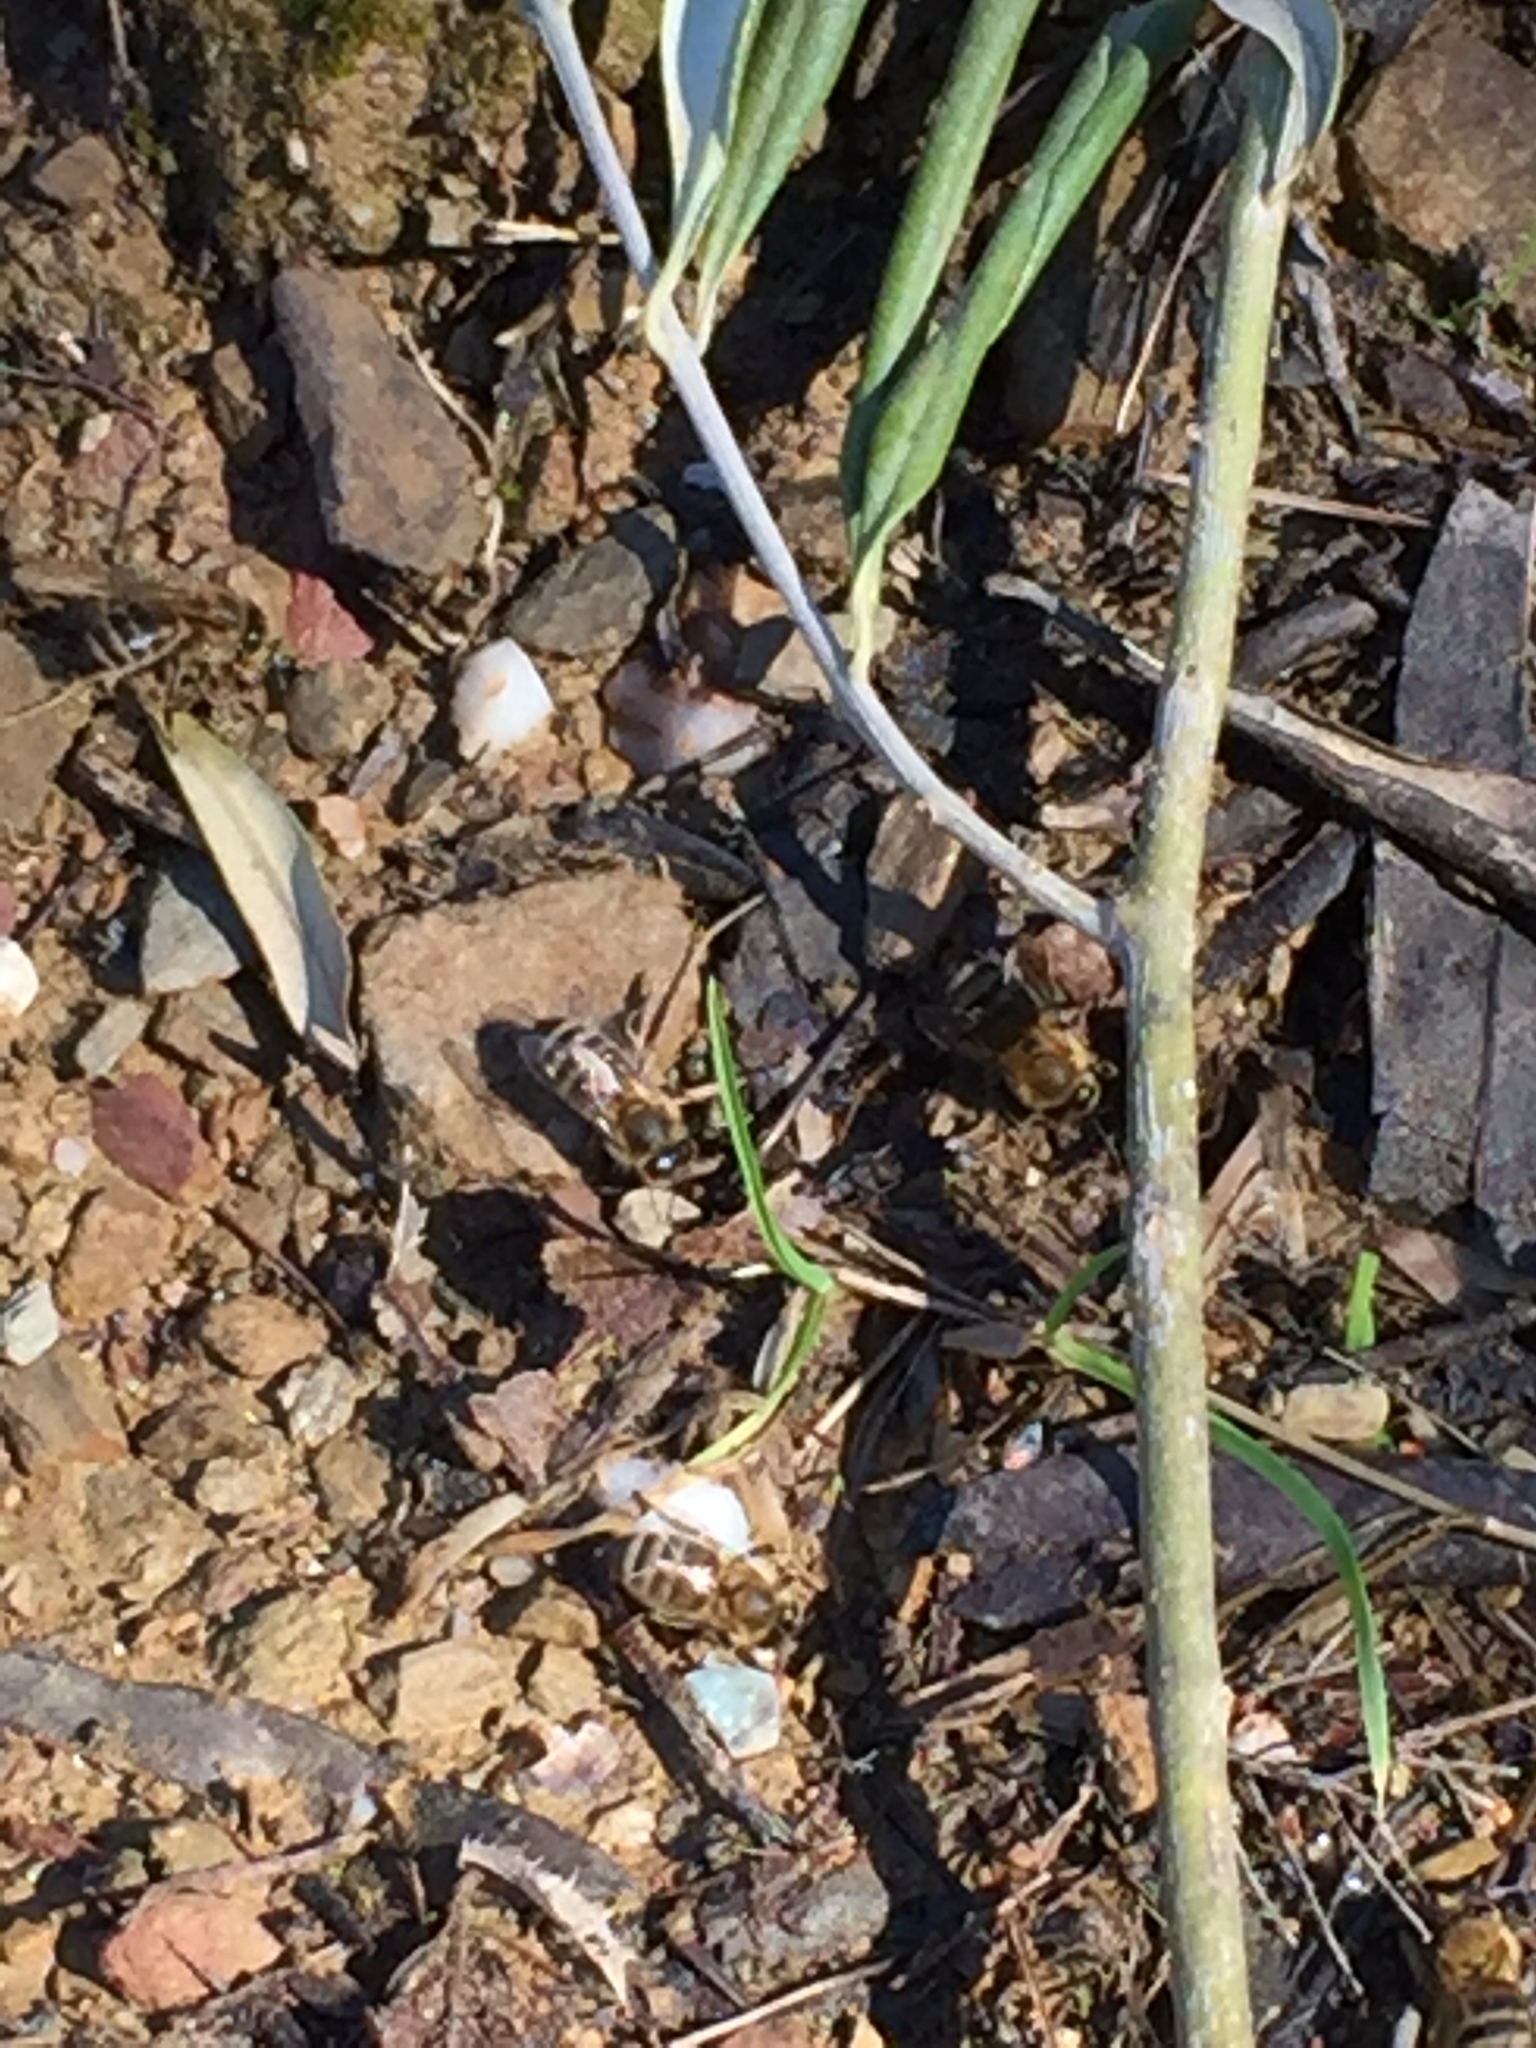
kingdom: Animalia
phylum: Arthropoda
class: Insecta
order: Hymenoptera
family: Apidae
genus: Apis
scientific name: Apis mellifera
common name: Honey bee
